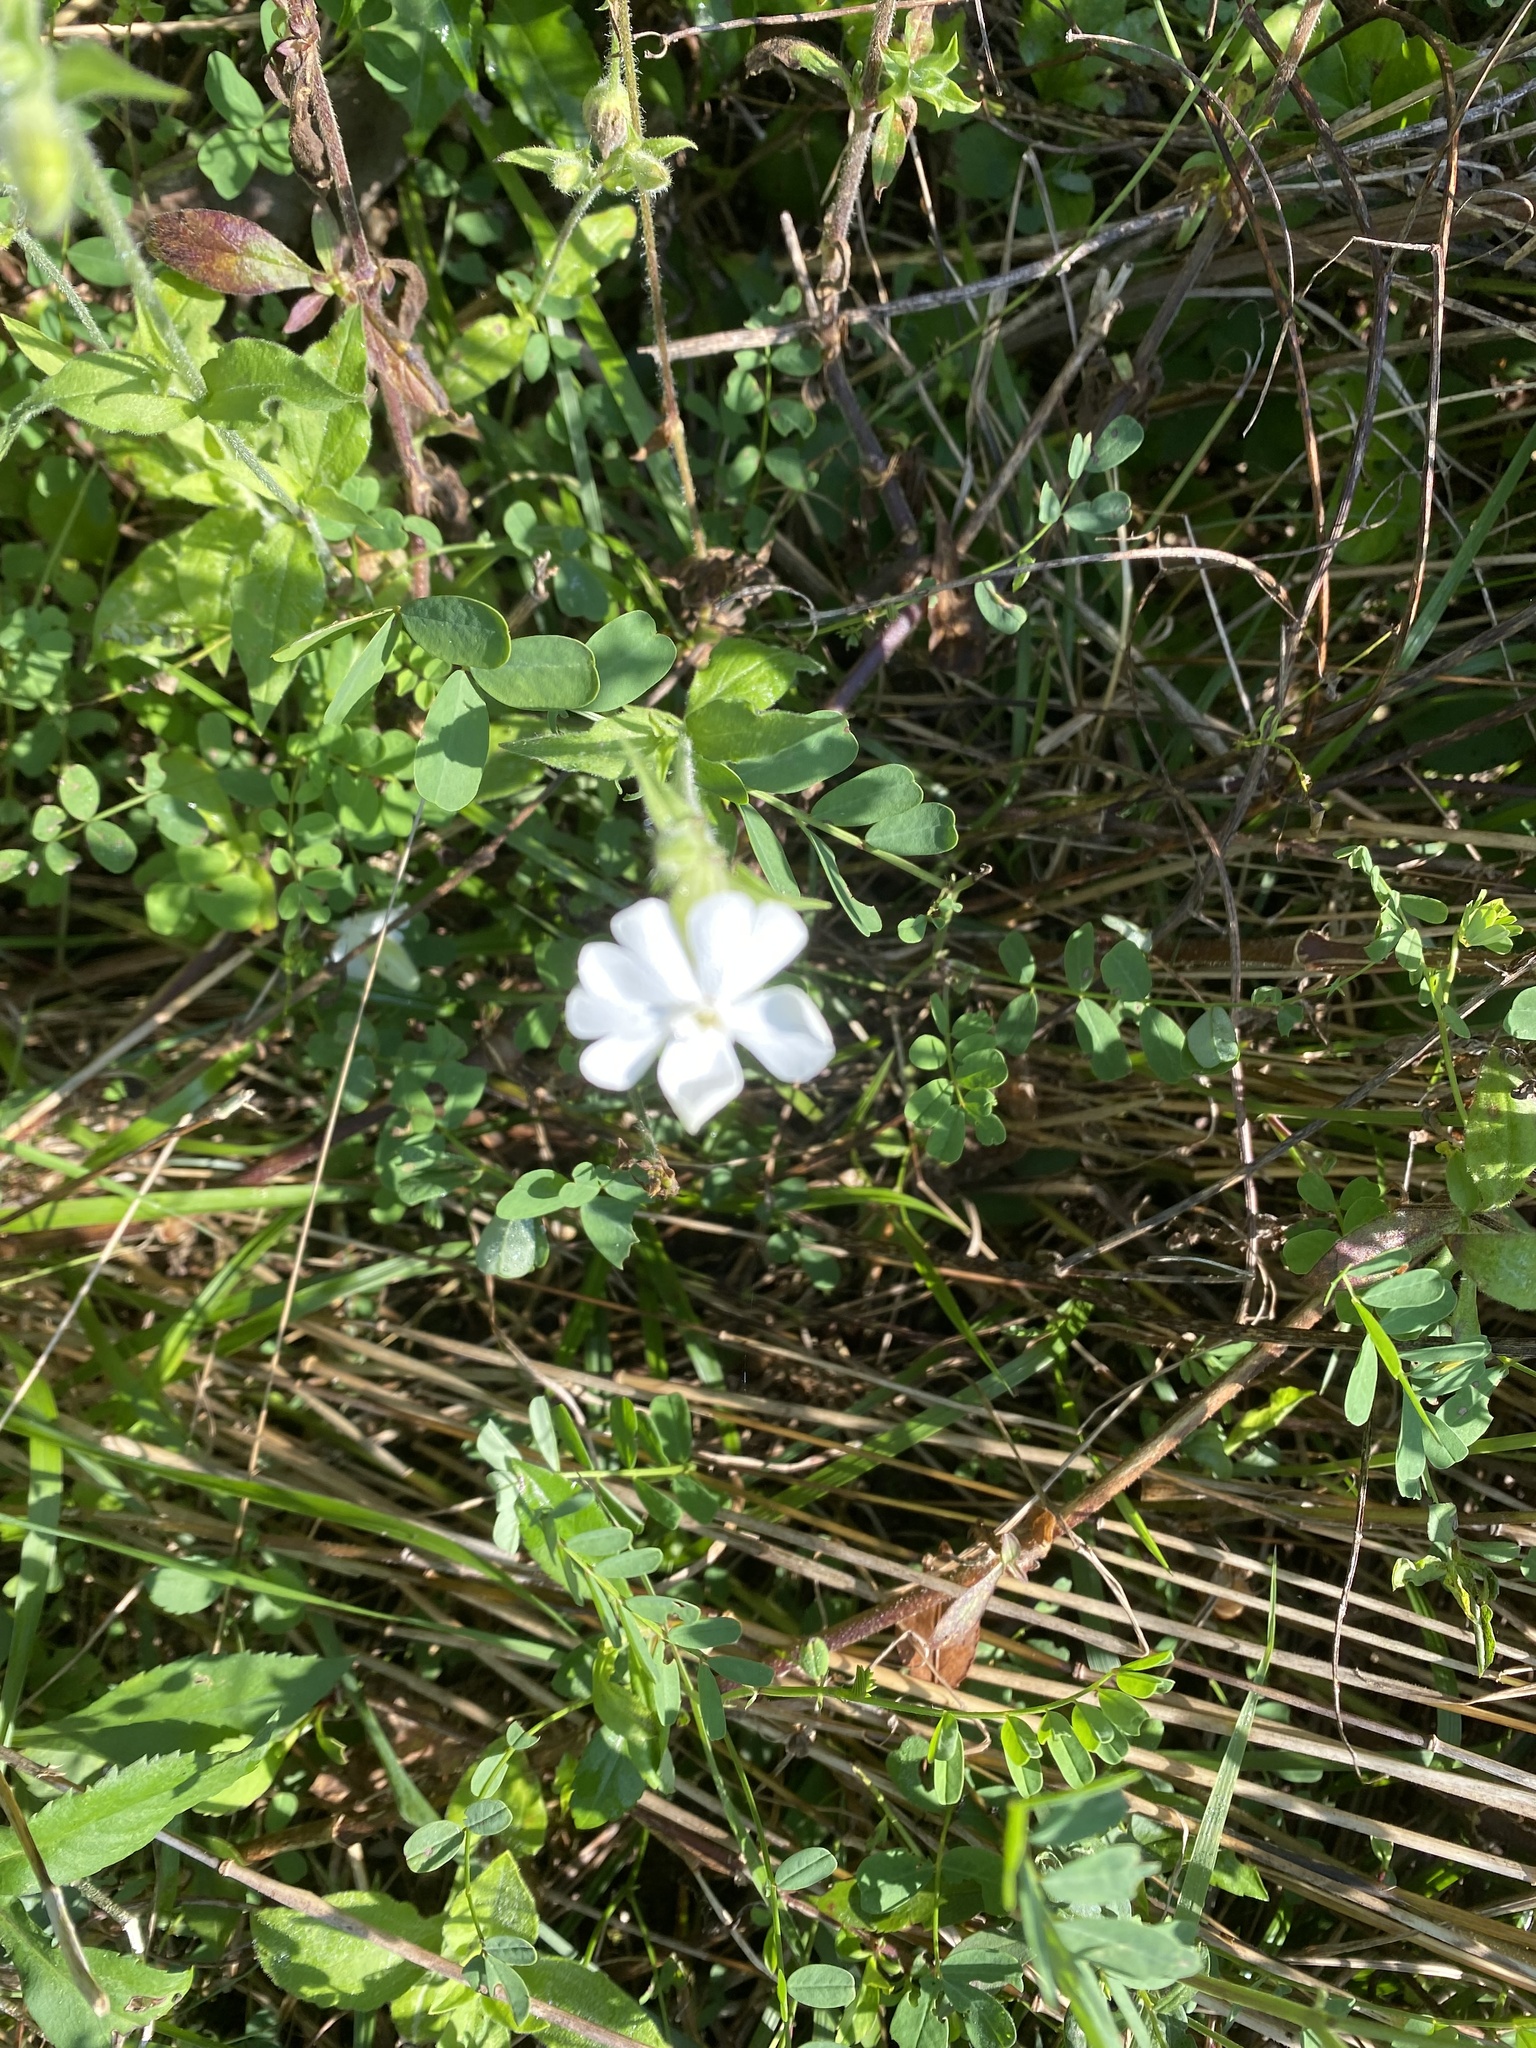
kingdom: Plantae
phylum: Tracheophyta
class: Magnoliopsida
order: Caryophyllales
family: Caryophyllaceae
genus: Silene
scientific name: Silene latifolia
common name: White campion
